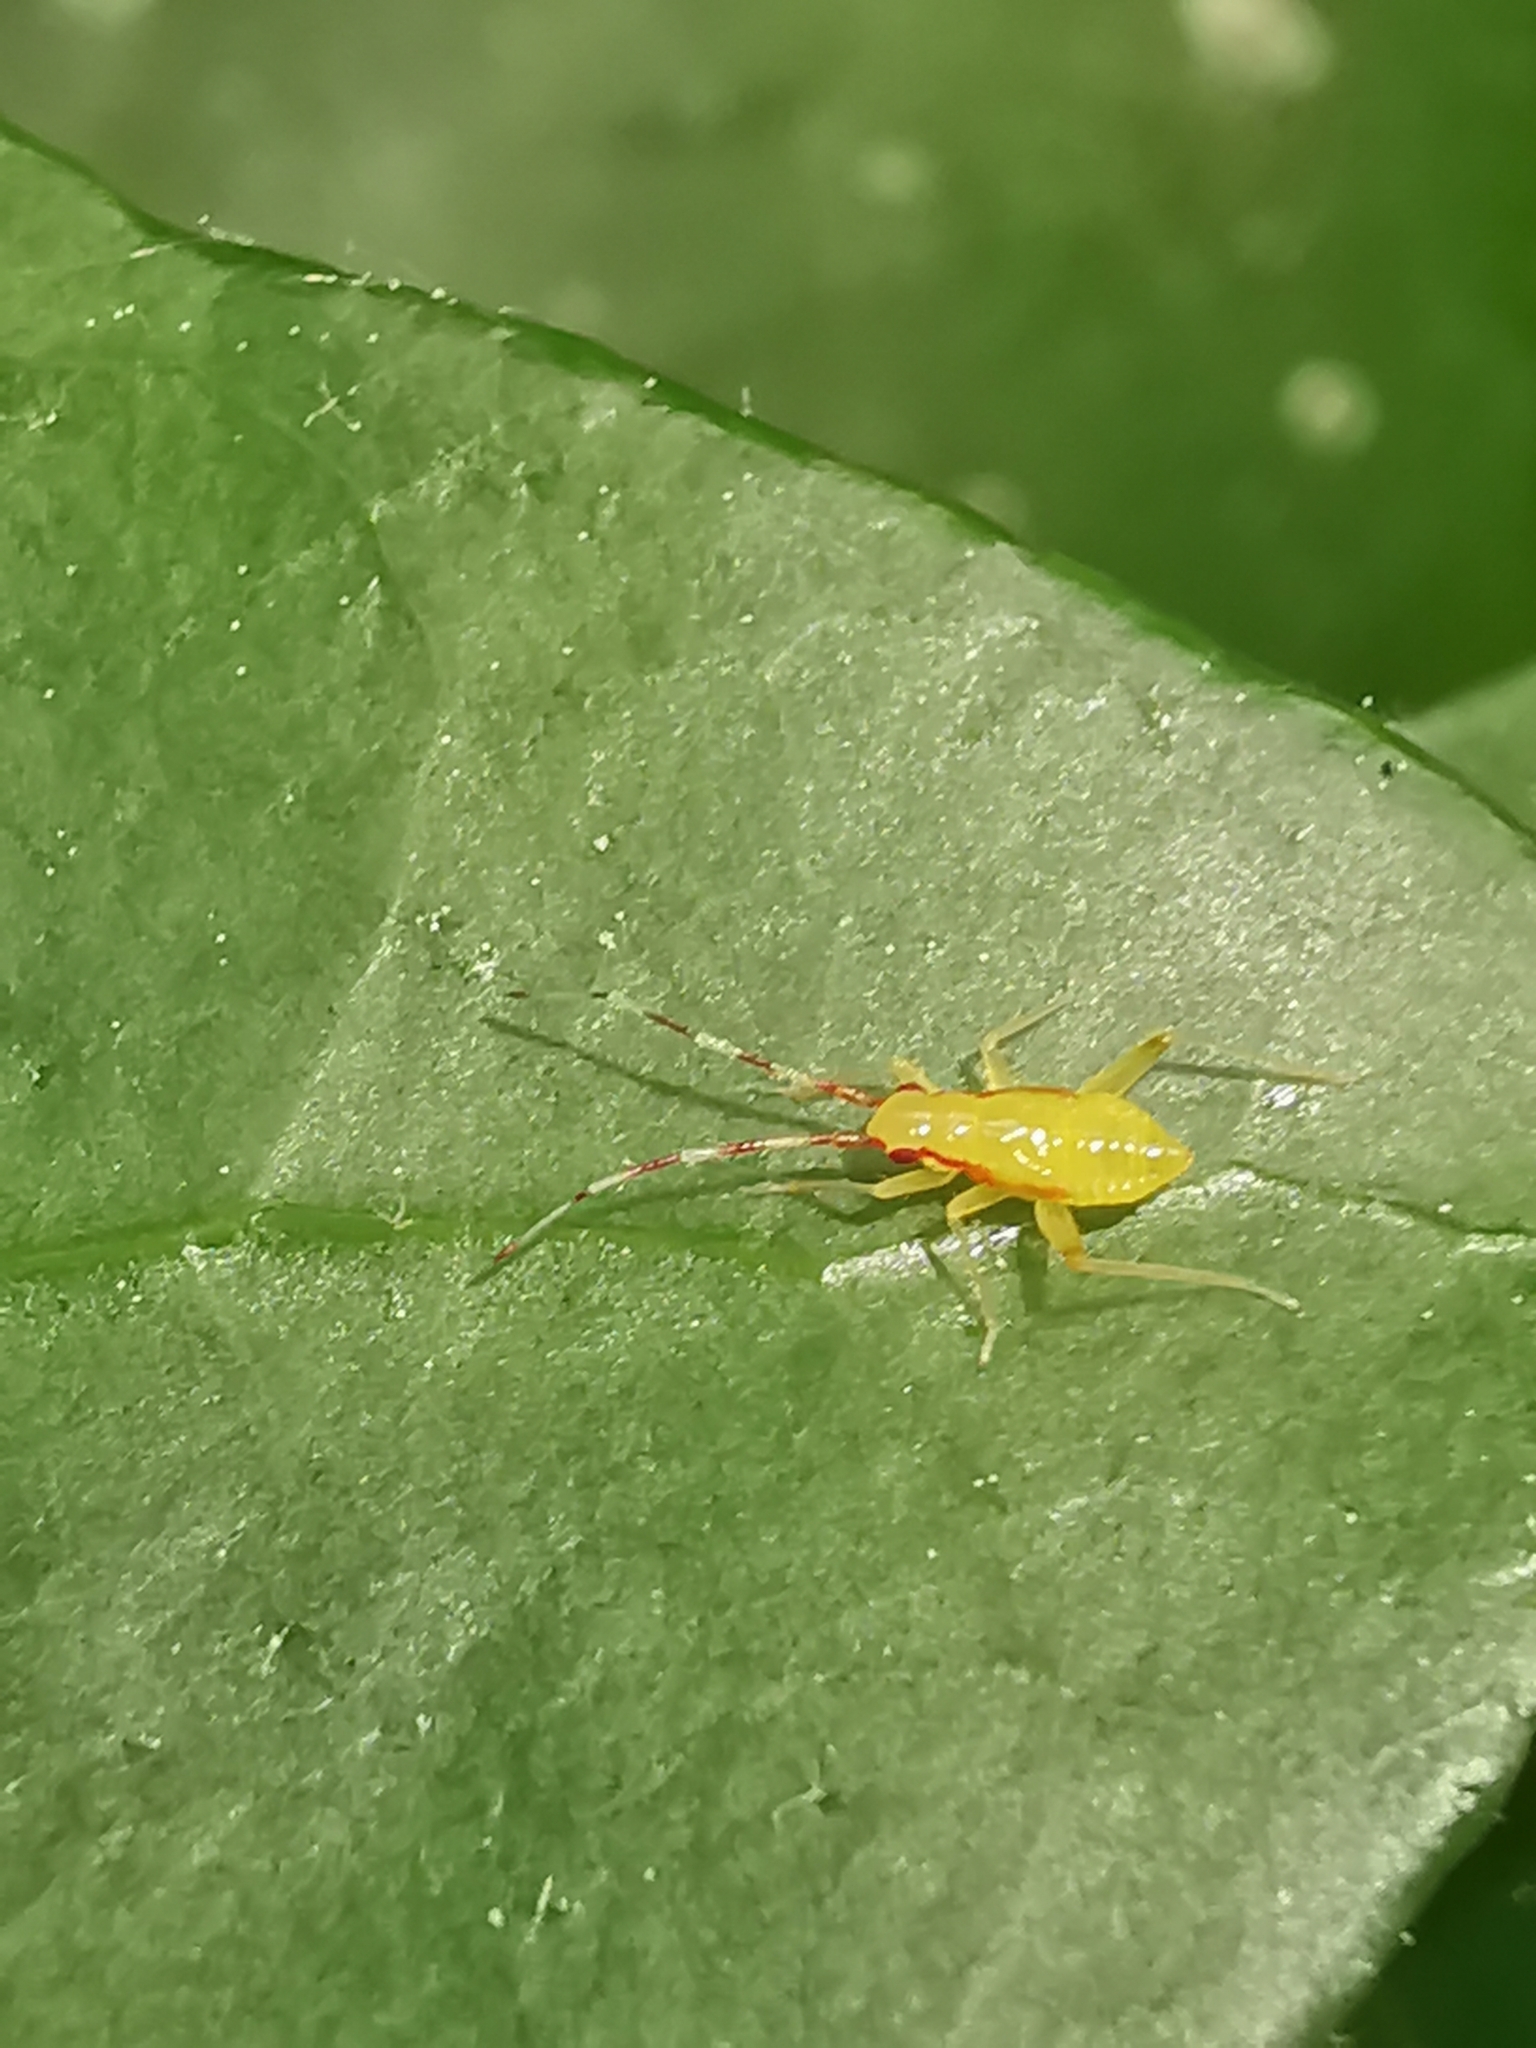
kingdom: Animalia
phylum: Arthropoda
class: Insecta
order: Hemiptera
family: Miridae
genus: Campyloneura
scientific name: Campyloneura virgula
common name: Predatory bug
